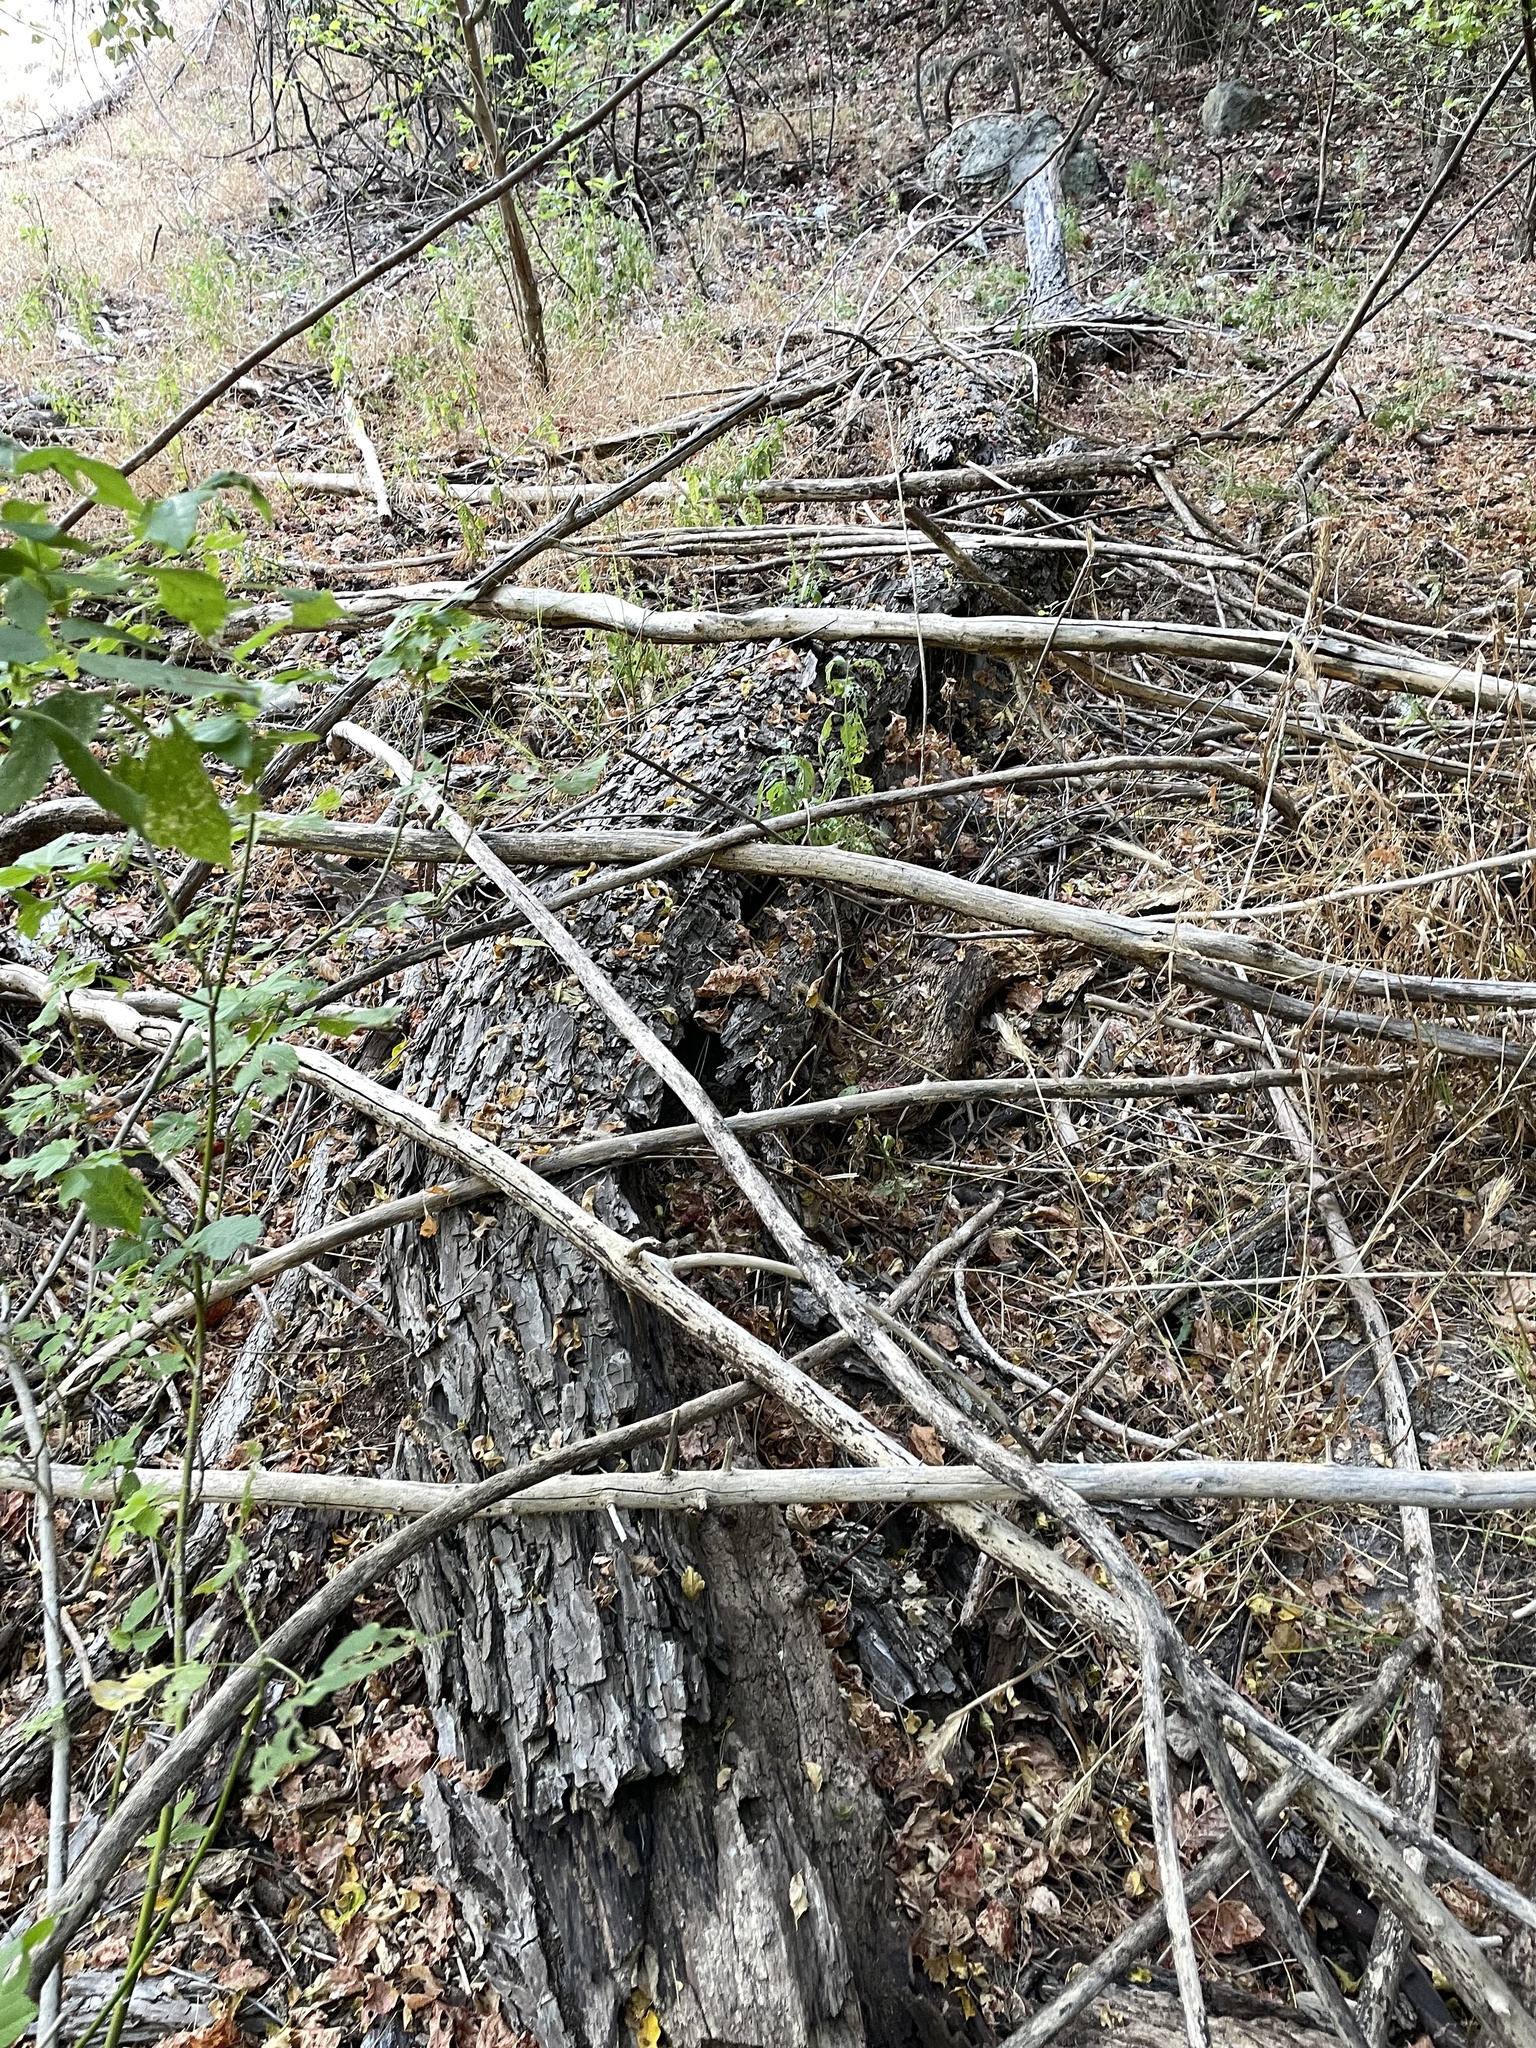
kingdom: Plantae
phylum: Tracheophyta
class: Magnoliopsida
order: Malpighiales
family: Salicaceae
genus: Salix
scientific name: Salix nigra
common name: Black willow
